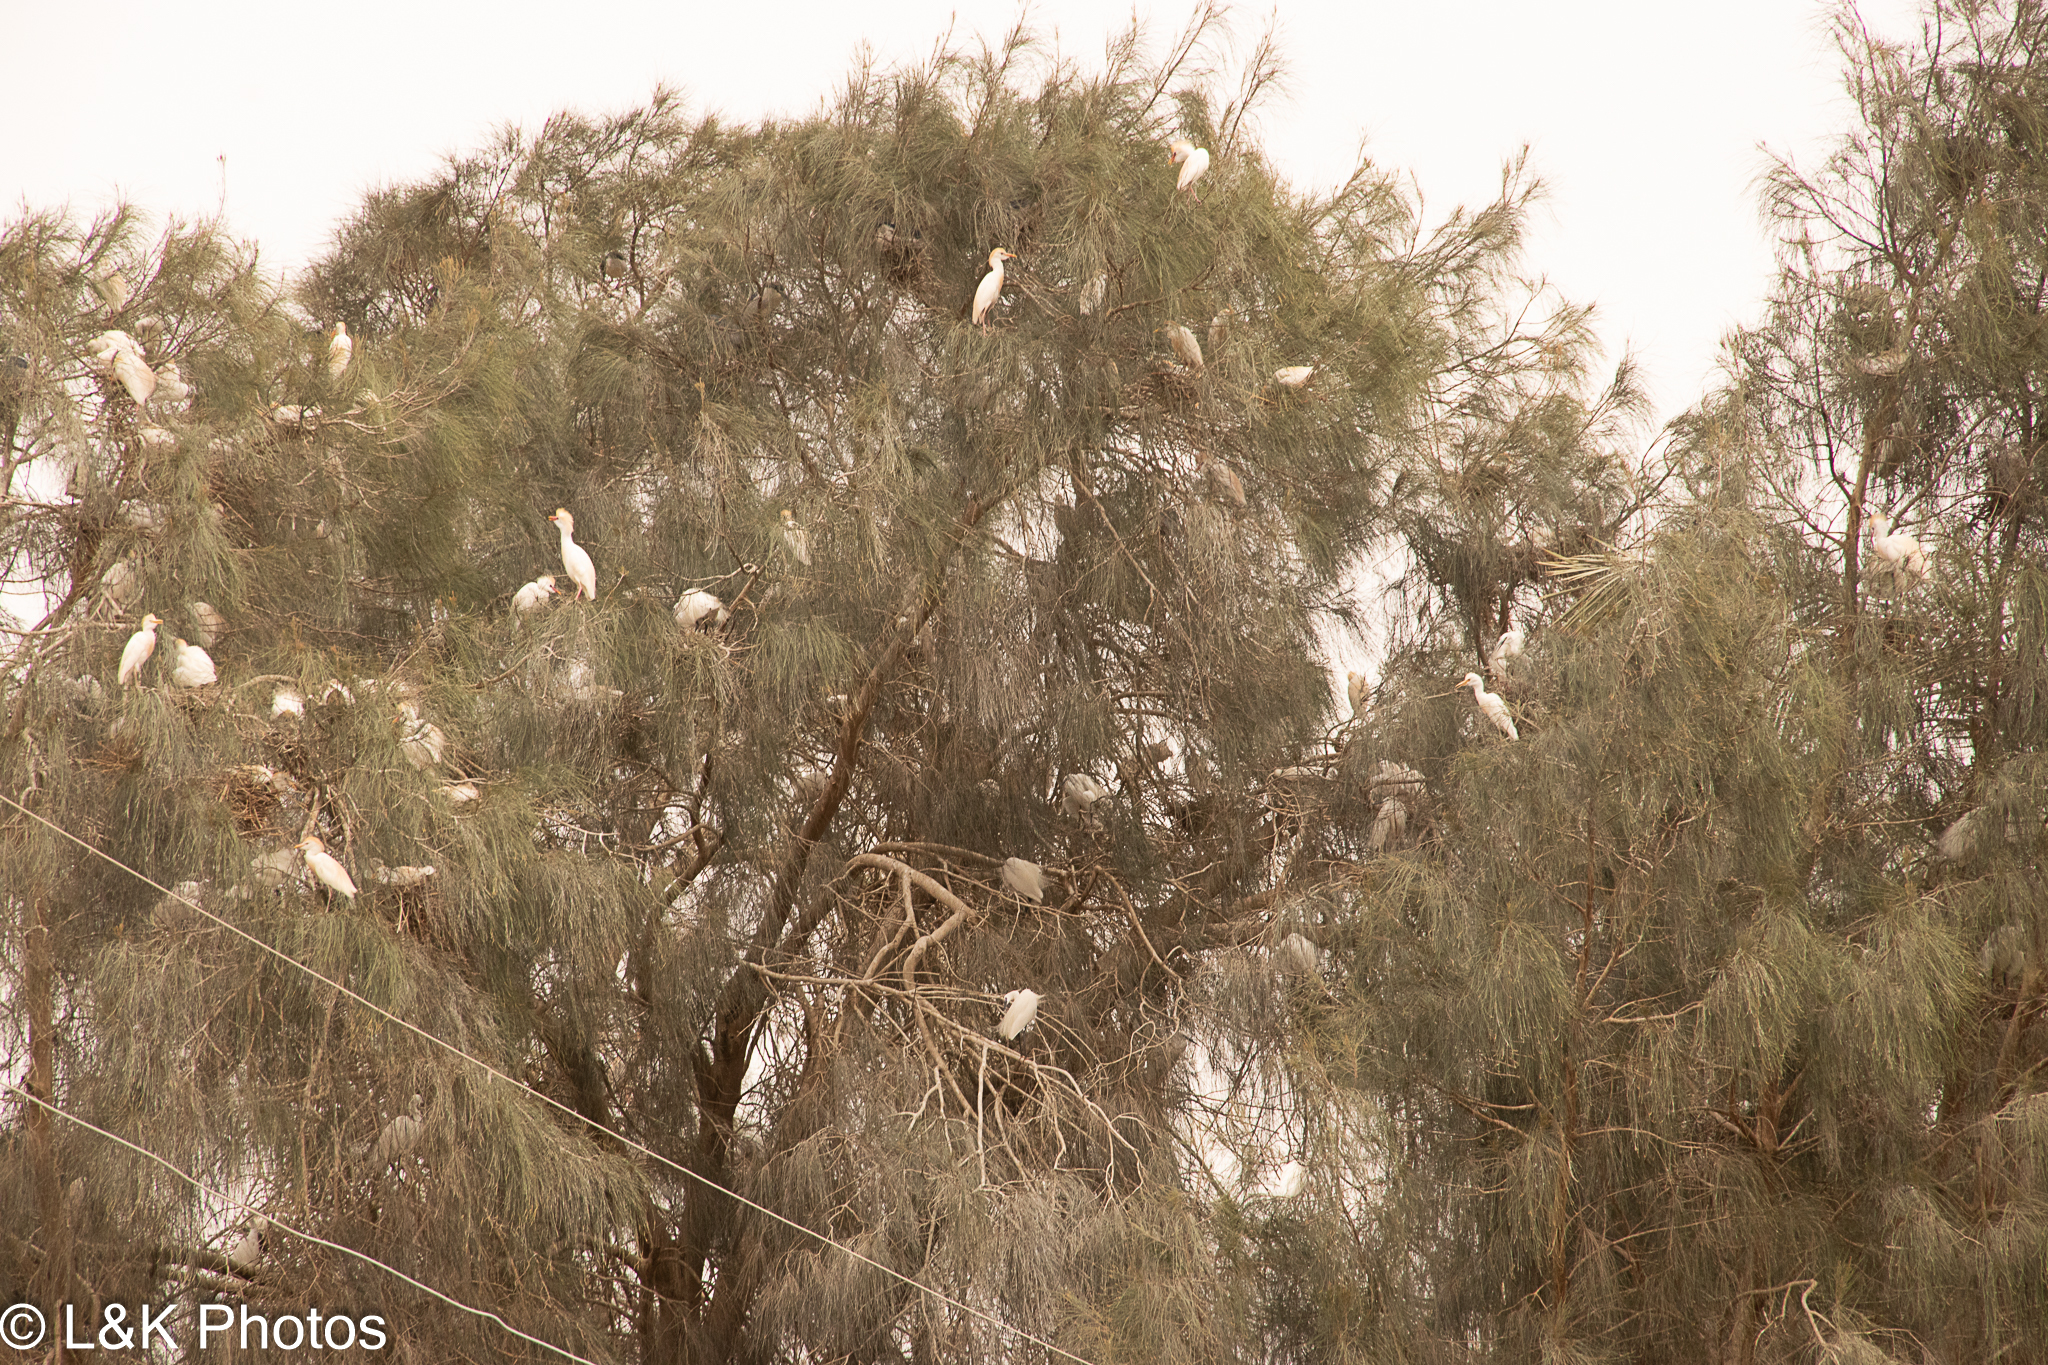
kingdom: Animalia
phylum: Chordata
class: Aves
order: Pelecaniformes
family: Ardeidae
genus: Bubulcus
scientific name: Bubulcus ibis
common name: Cattle egret
